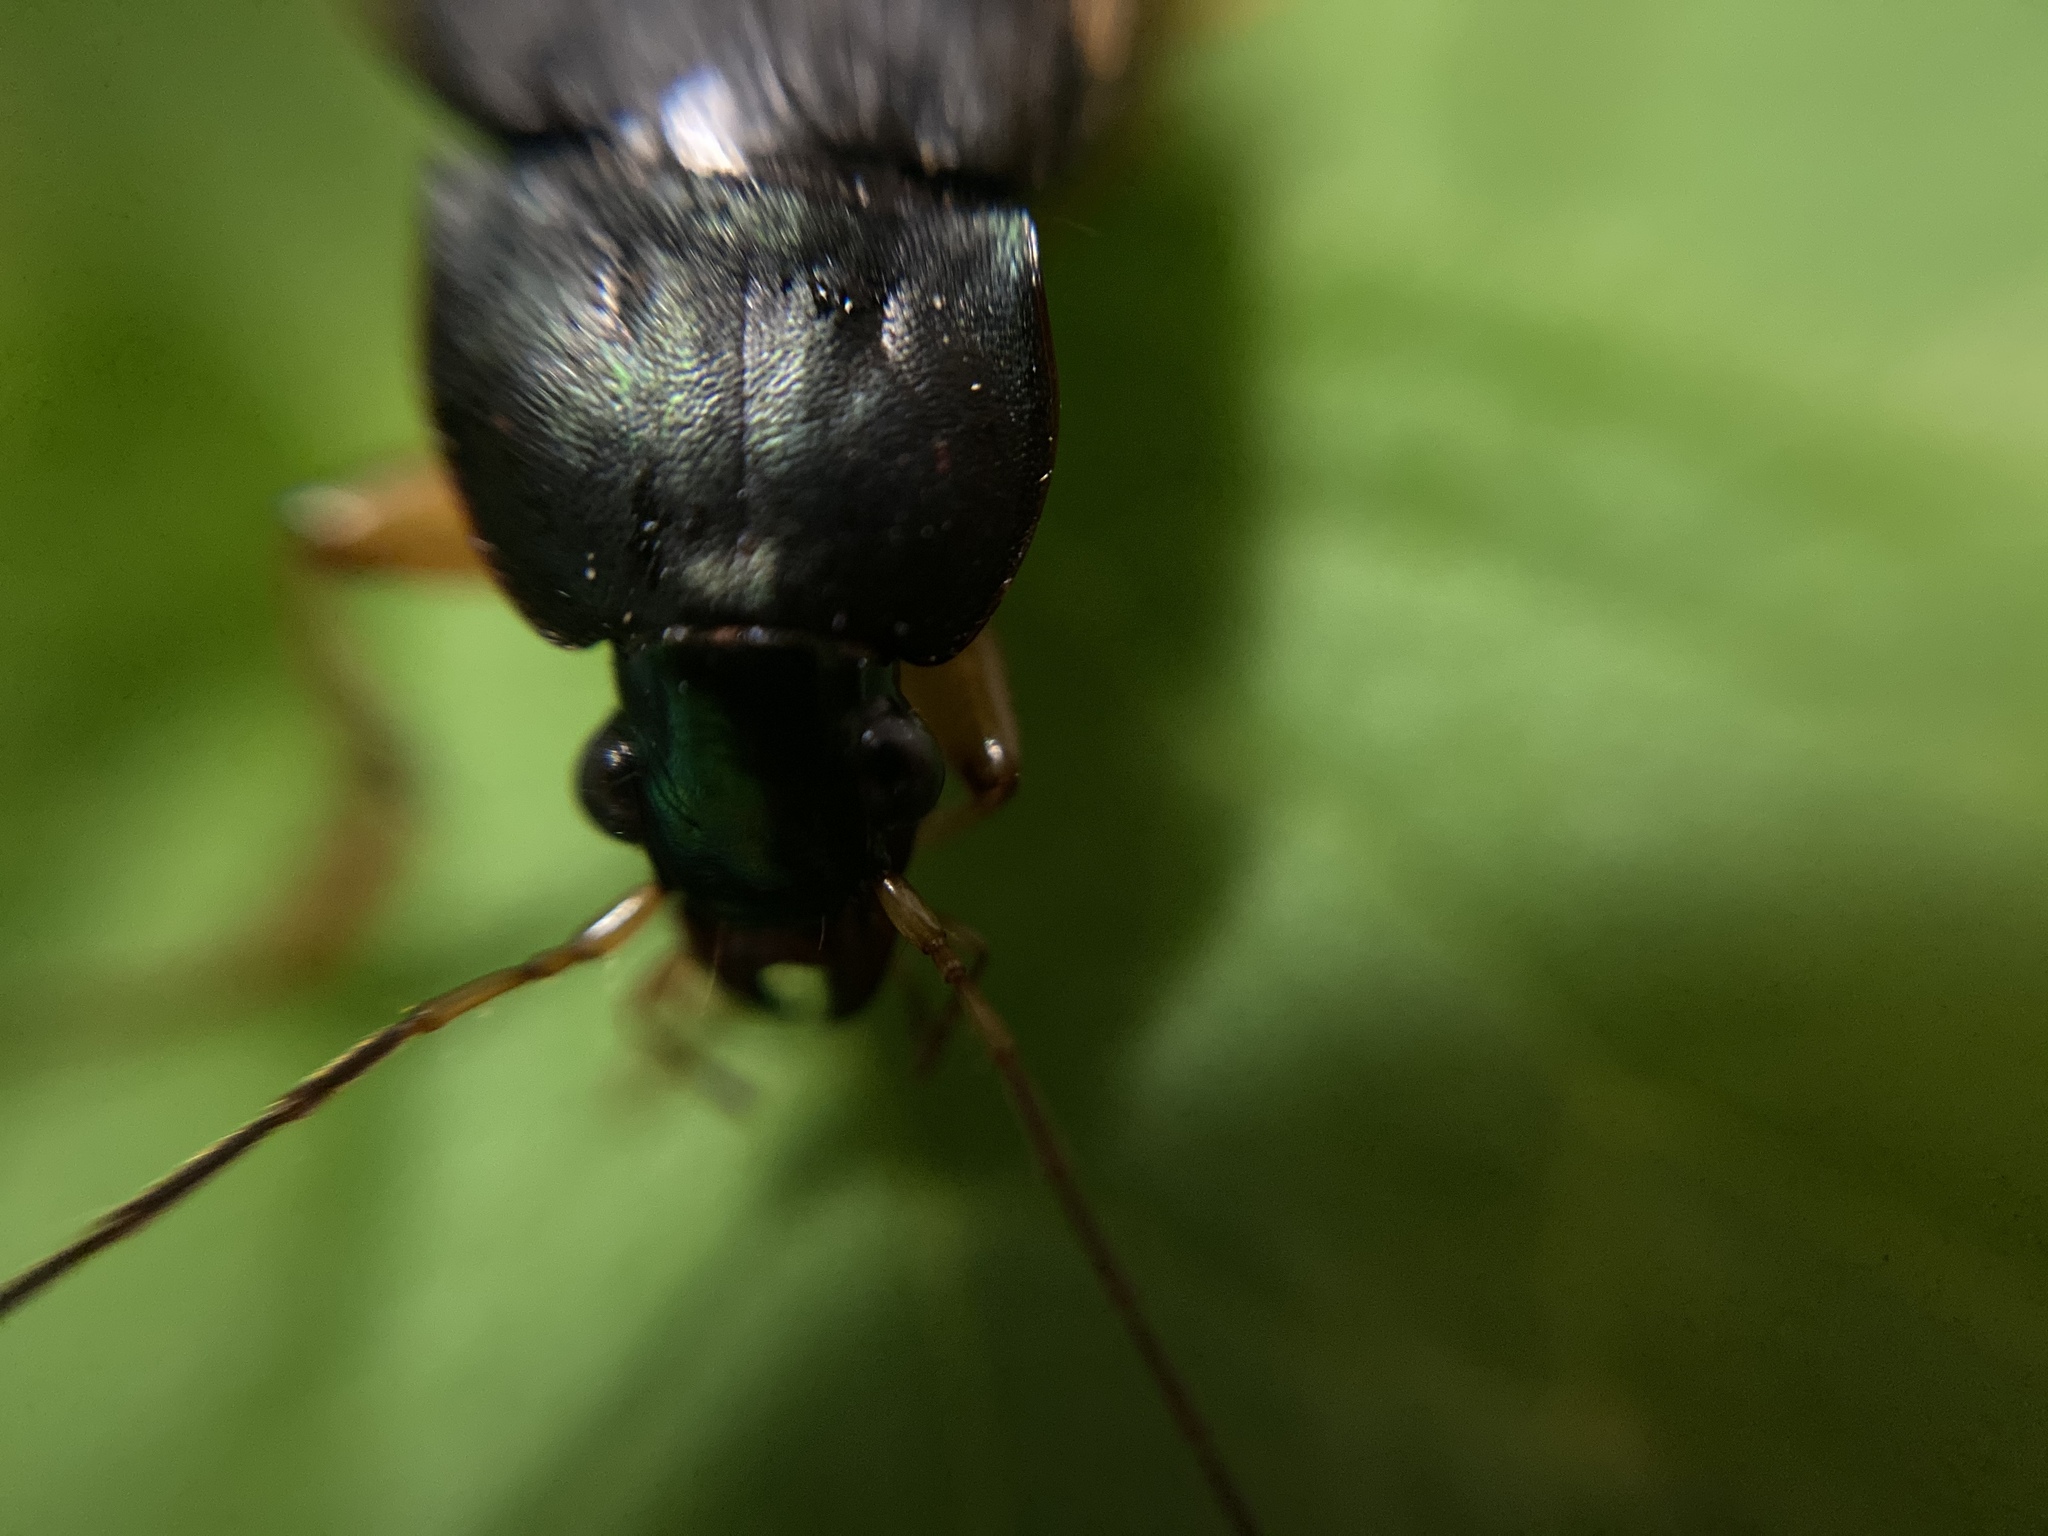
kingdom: Animalia
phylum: Arthropoda
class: Insecta
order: Coleoptera
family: Carabidae
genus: Chlaenius
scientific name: Chlaenius impunctifrons
